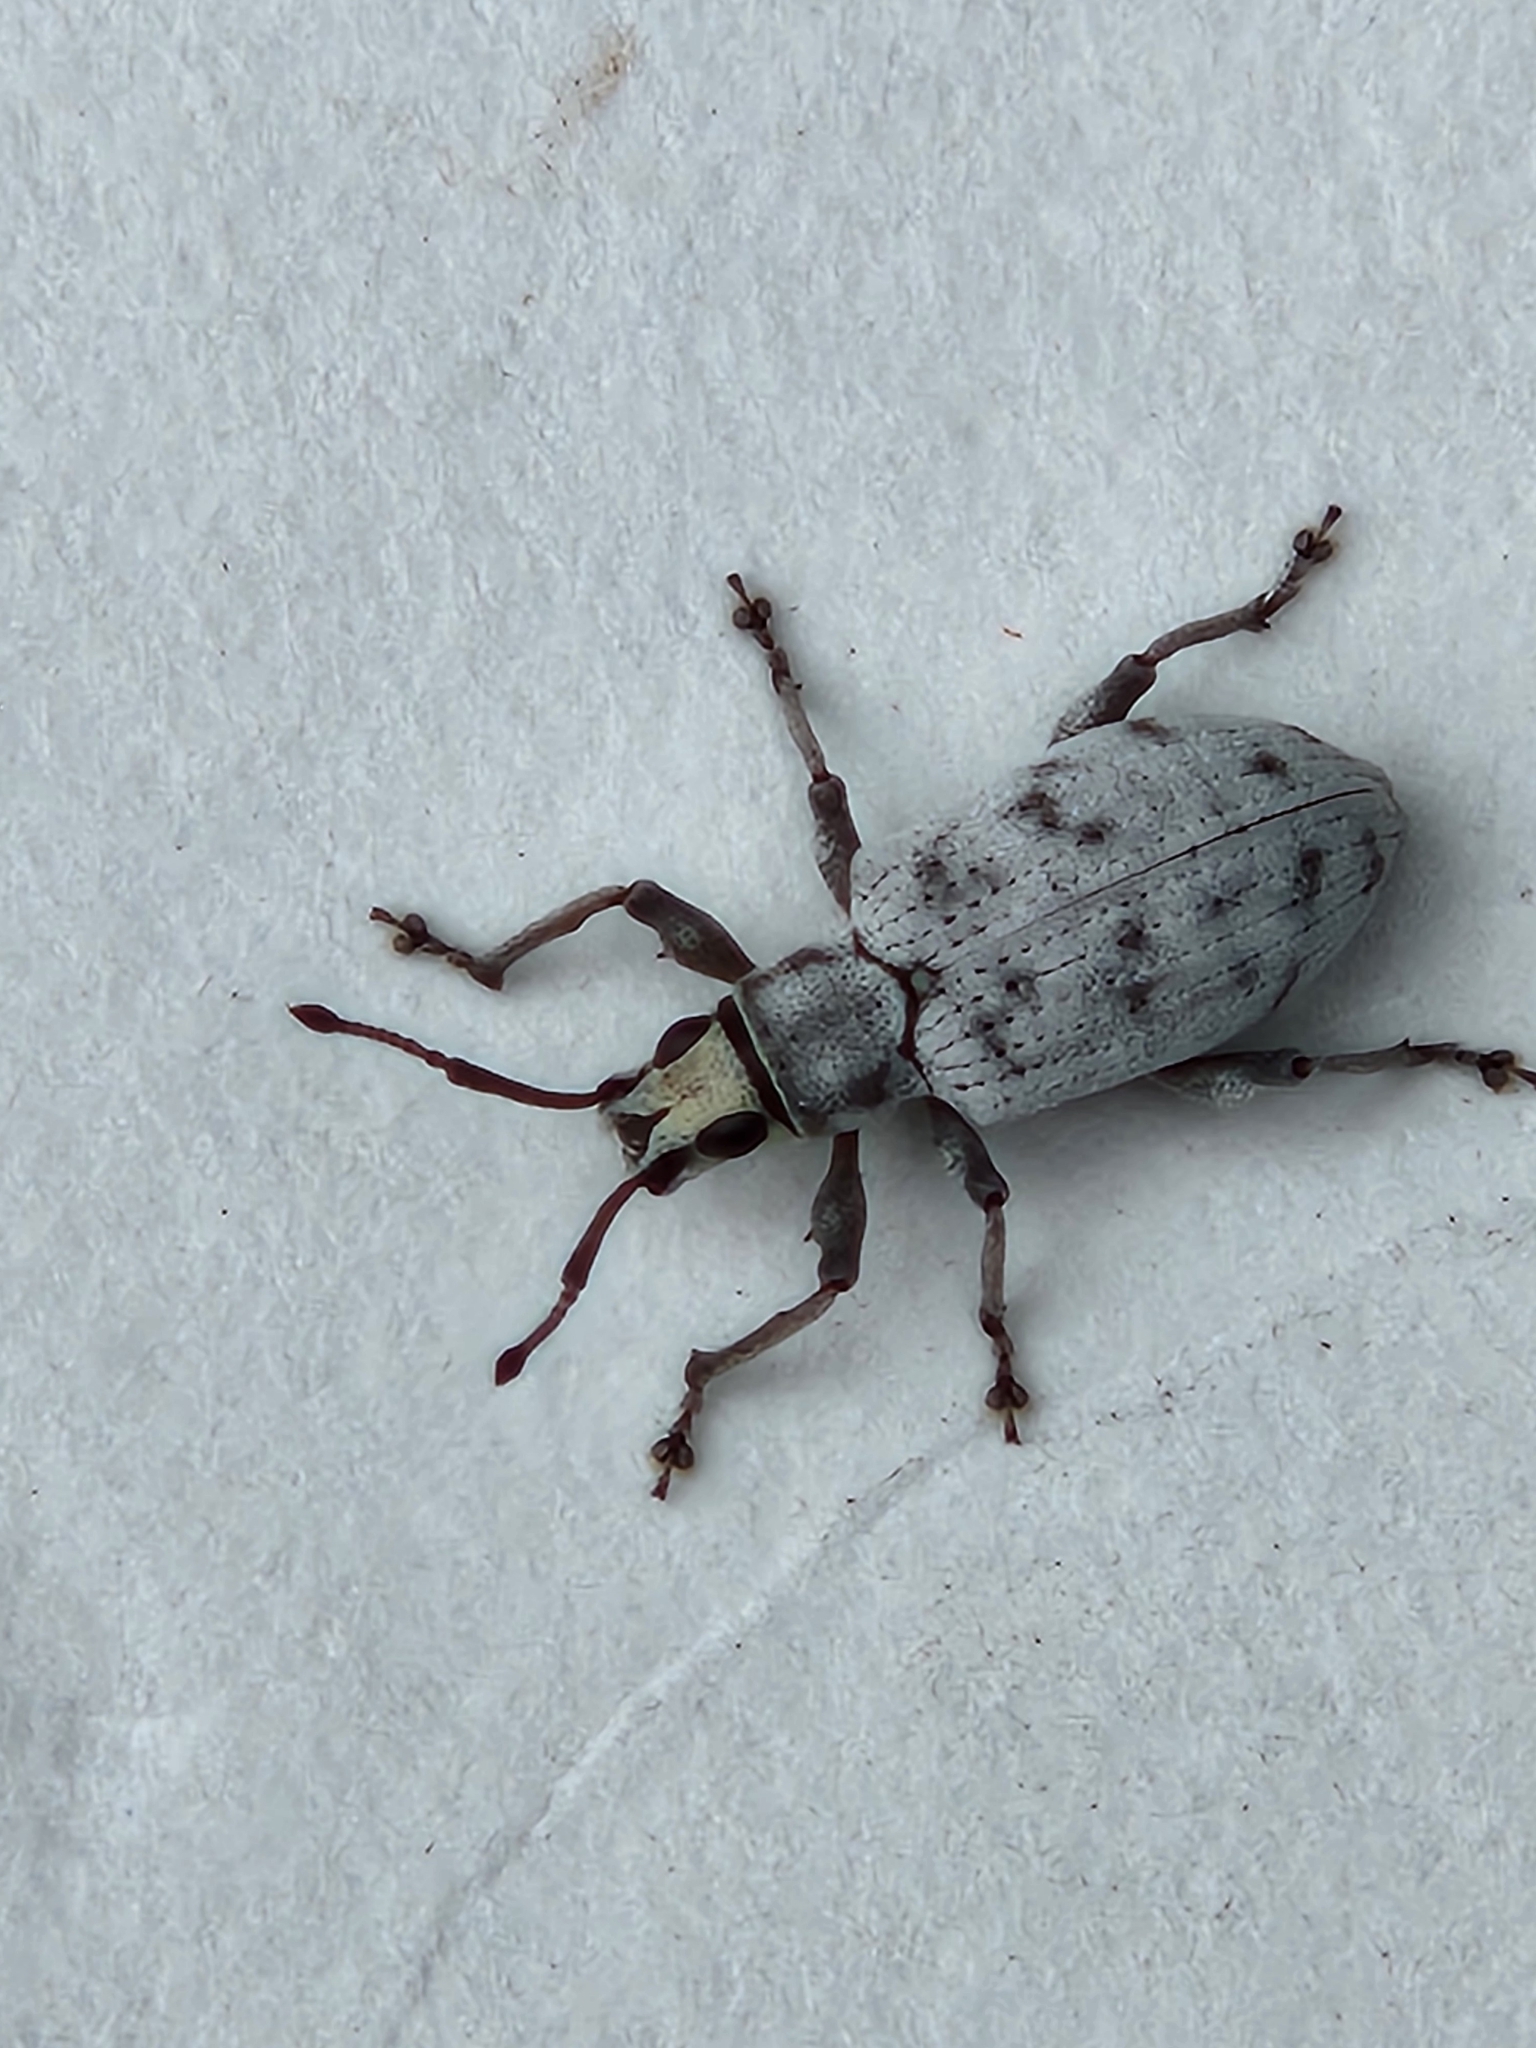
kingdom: Animalia
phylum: Arthropoda
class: Insecta
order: Coleoptera
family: Curculionidae
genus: Myllocerus
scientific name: Myllocerus undecimpustulatus
